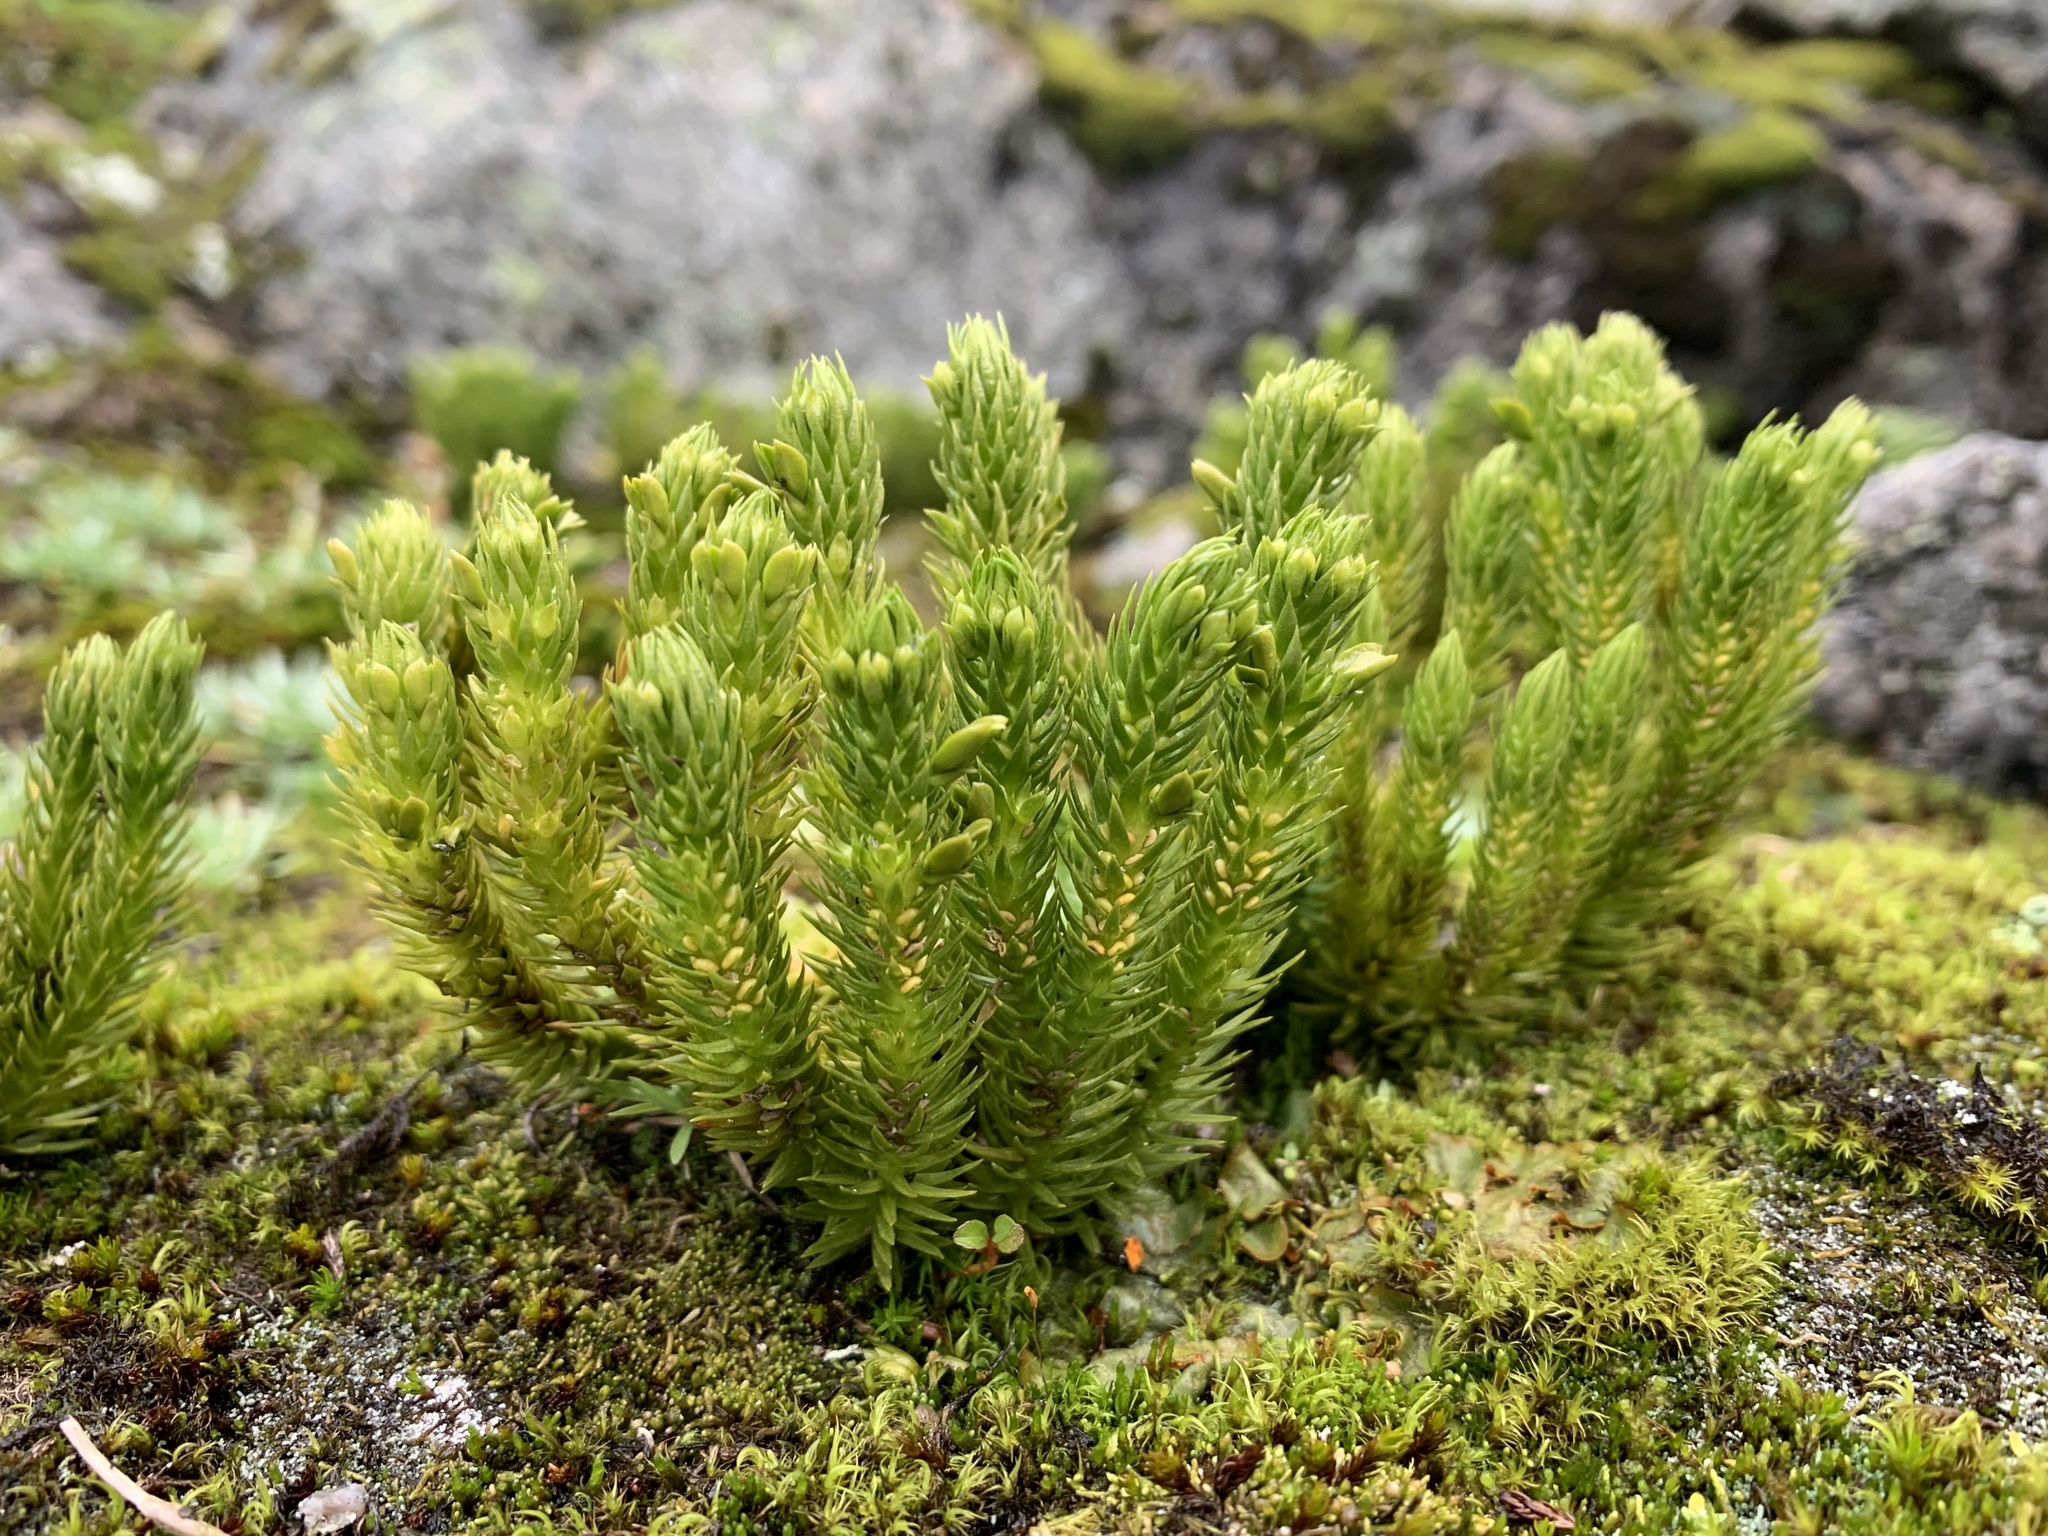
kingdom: Plantae
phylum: Tracheophyta
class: Lycopodiopsida
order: Lycopodiales
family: Lycopodiaceae
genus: Huperzia
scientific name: Huperzia selago
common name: Northern firmoss
